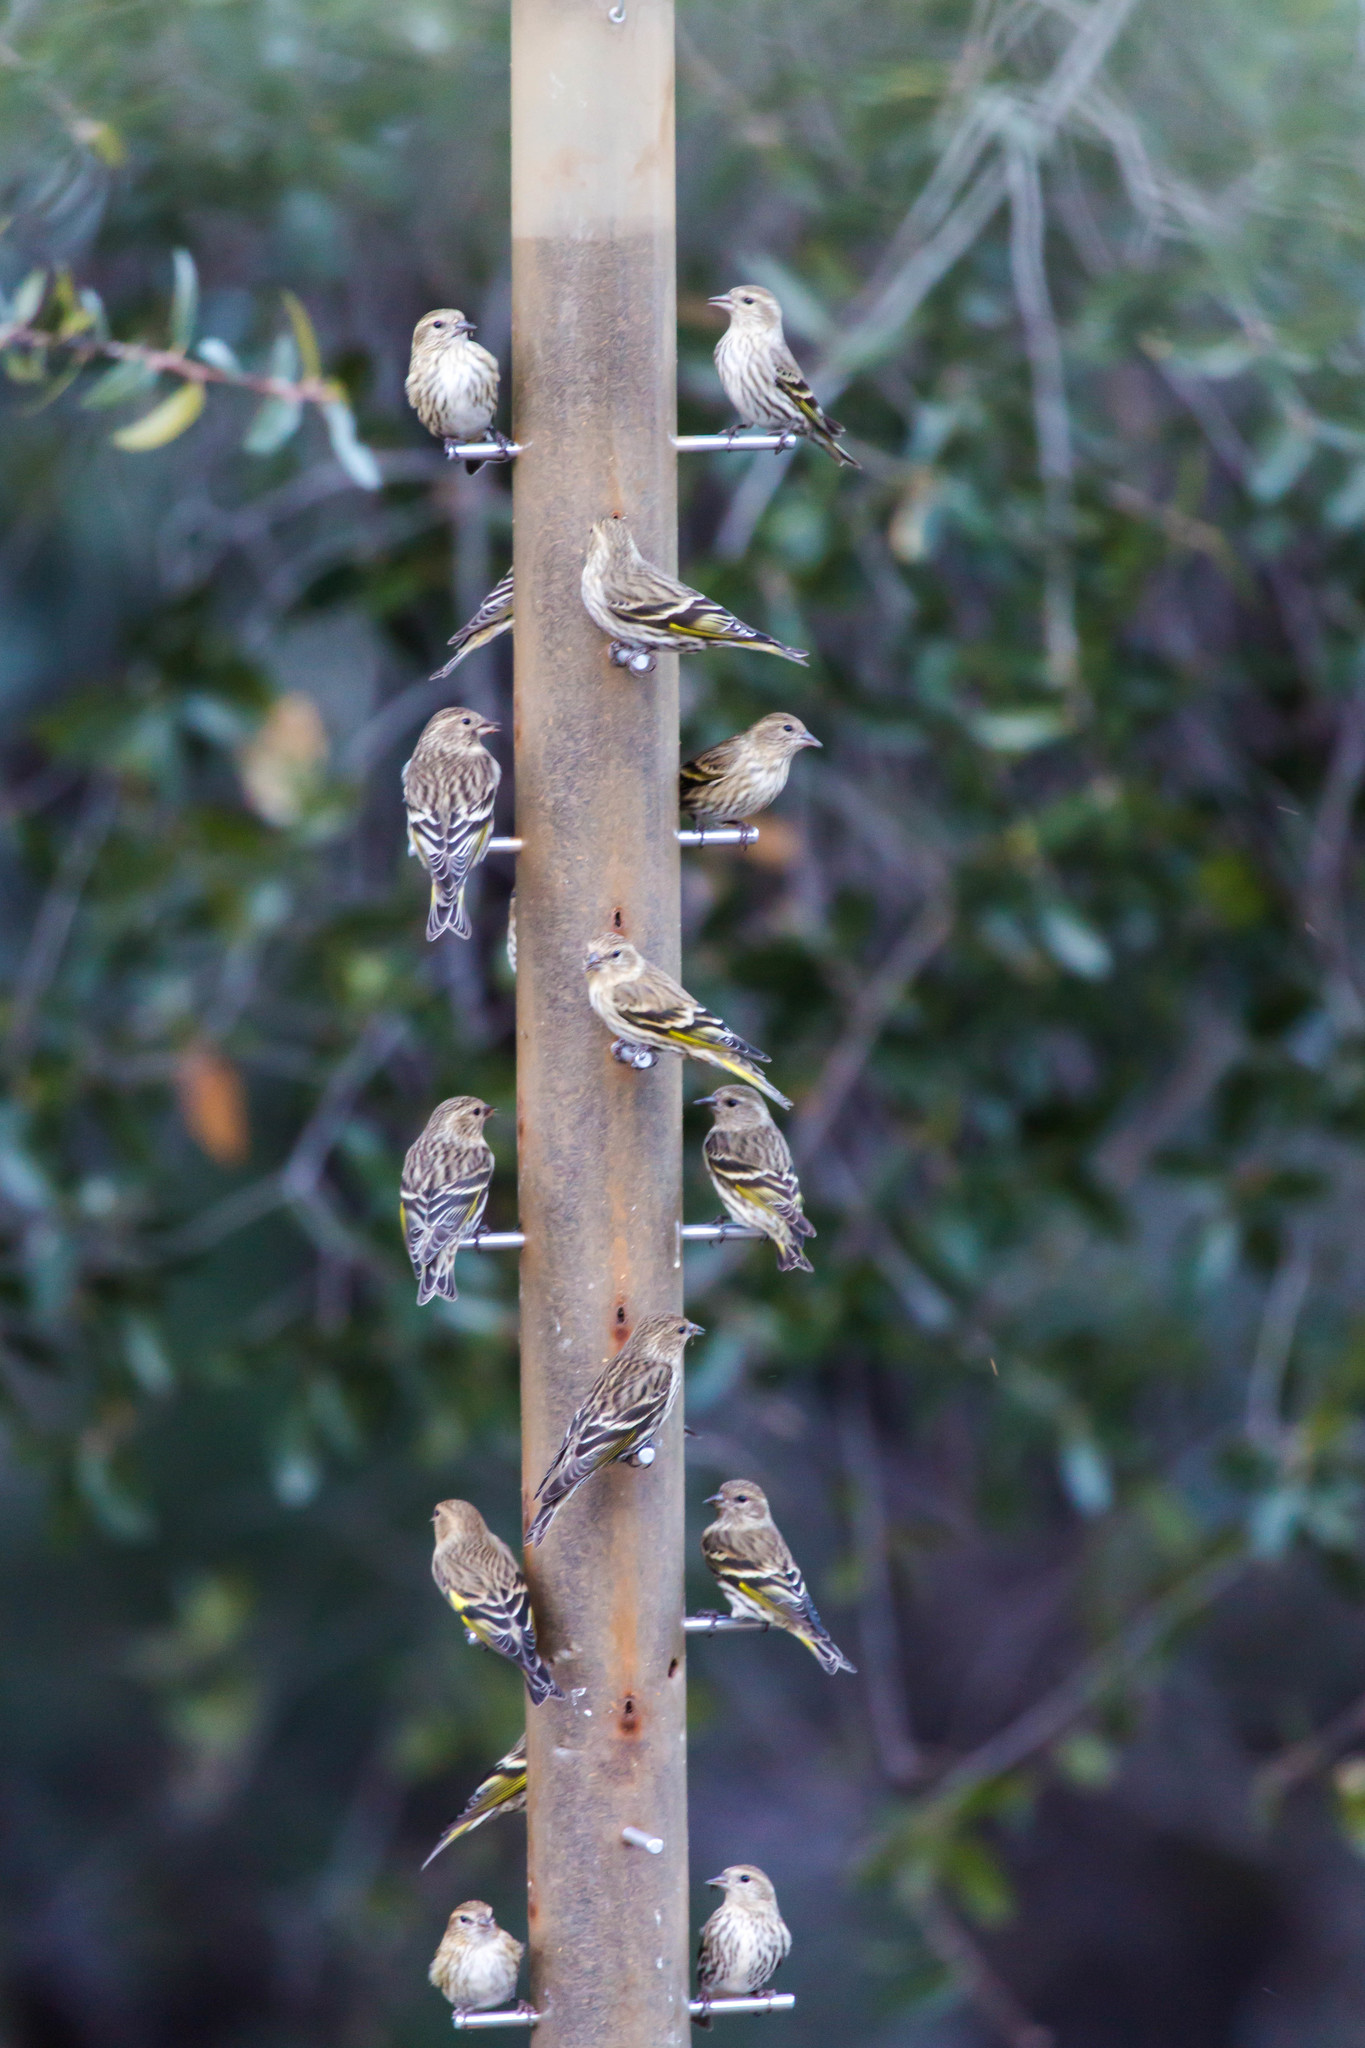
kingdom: Animalia
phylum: Chordata
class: Aves
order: Passeriformes
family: Fringillidae
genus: Spinus
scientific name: Spinus pinus
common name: Pine siskin
